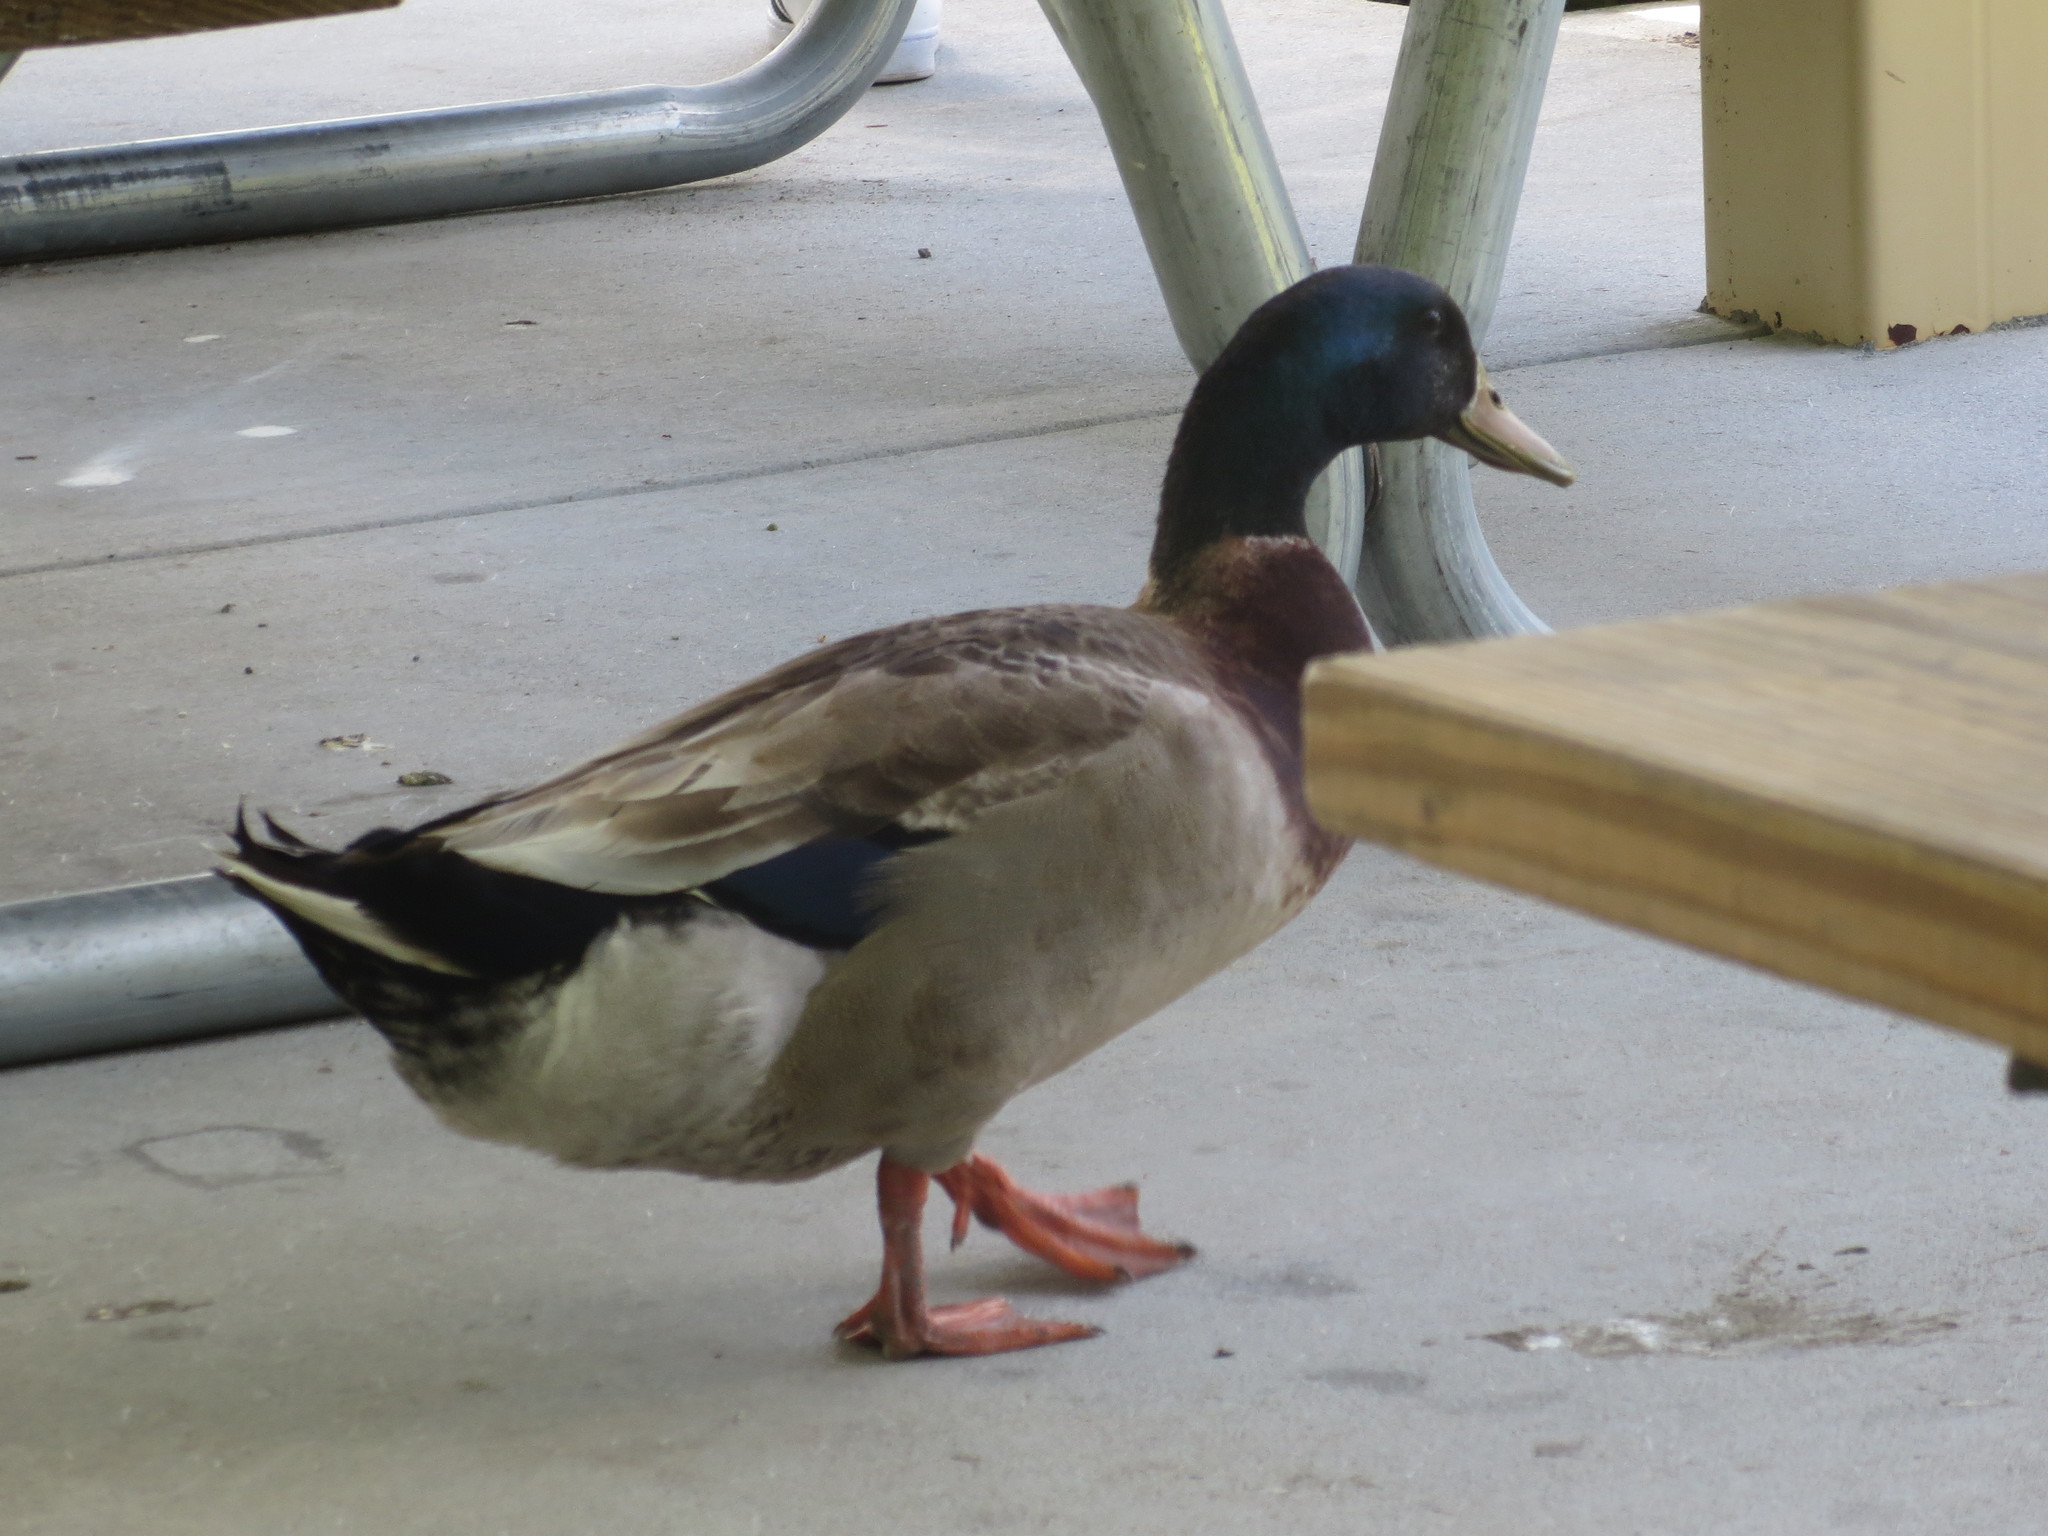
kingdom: Animalia
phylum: Chordata
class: Aves
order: Anseriformes
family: Anatidae
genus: Anas
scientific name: Anas platyrhynchos
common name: Mallard
